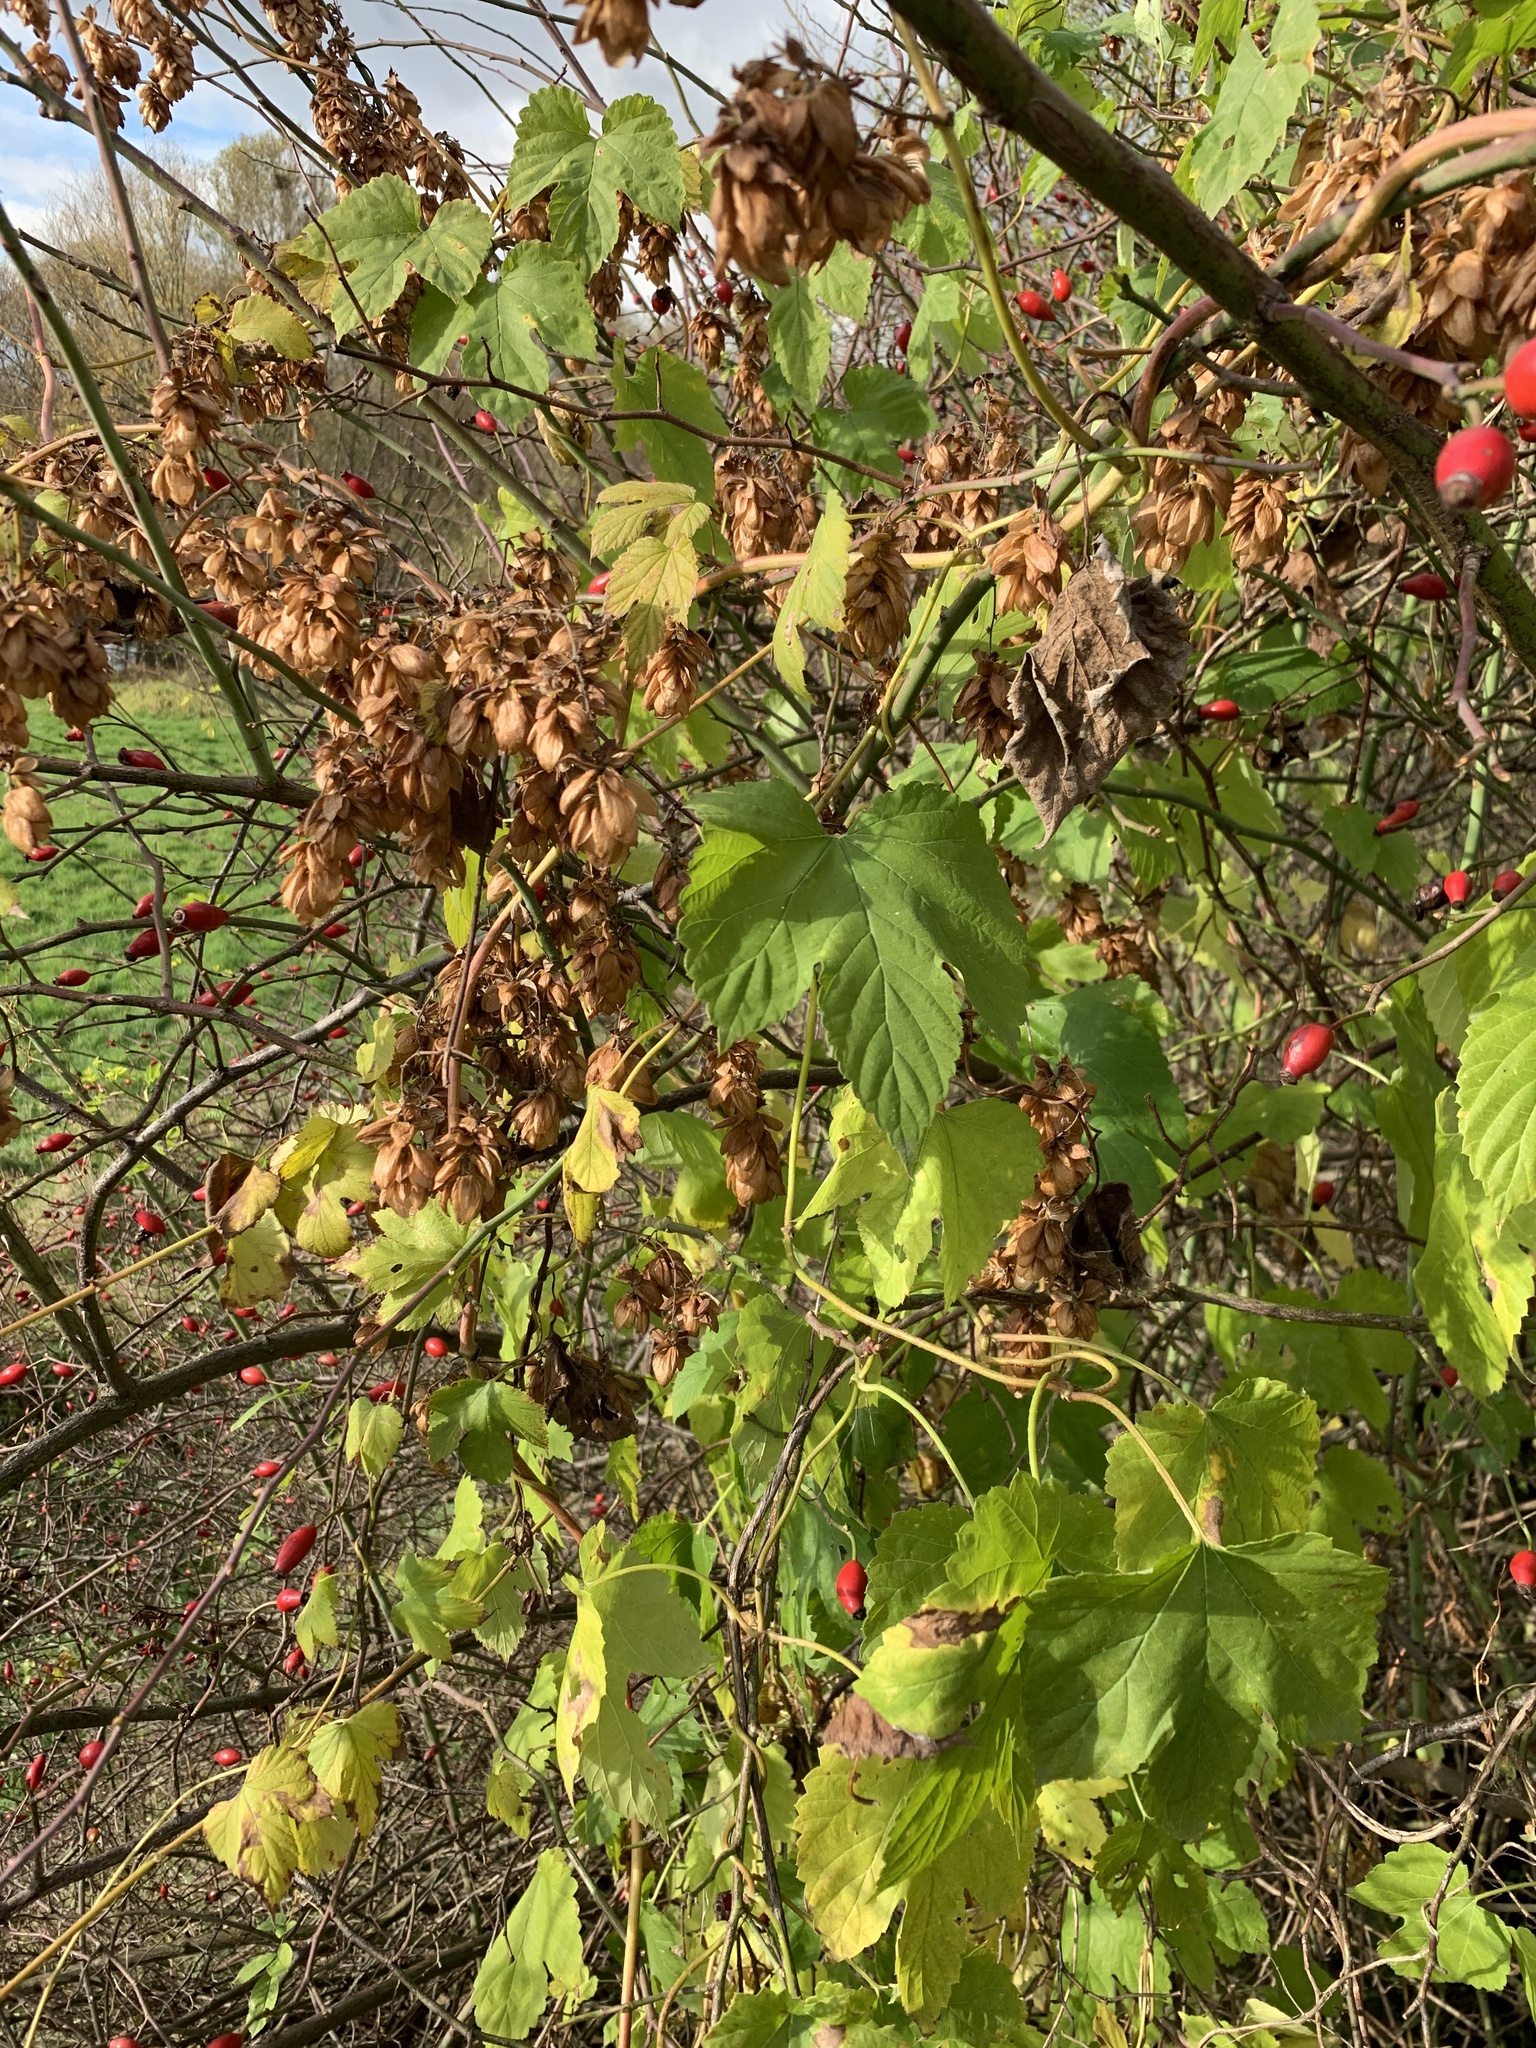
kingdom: Plantae
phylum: Tracheophyta
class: Magnoliopsida
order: Rosales
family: Cannabaceae
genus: Humulus
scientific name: Humulus lupulus
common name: Hop
